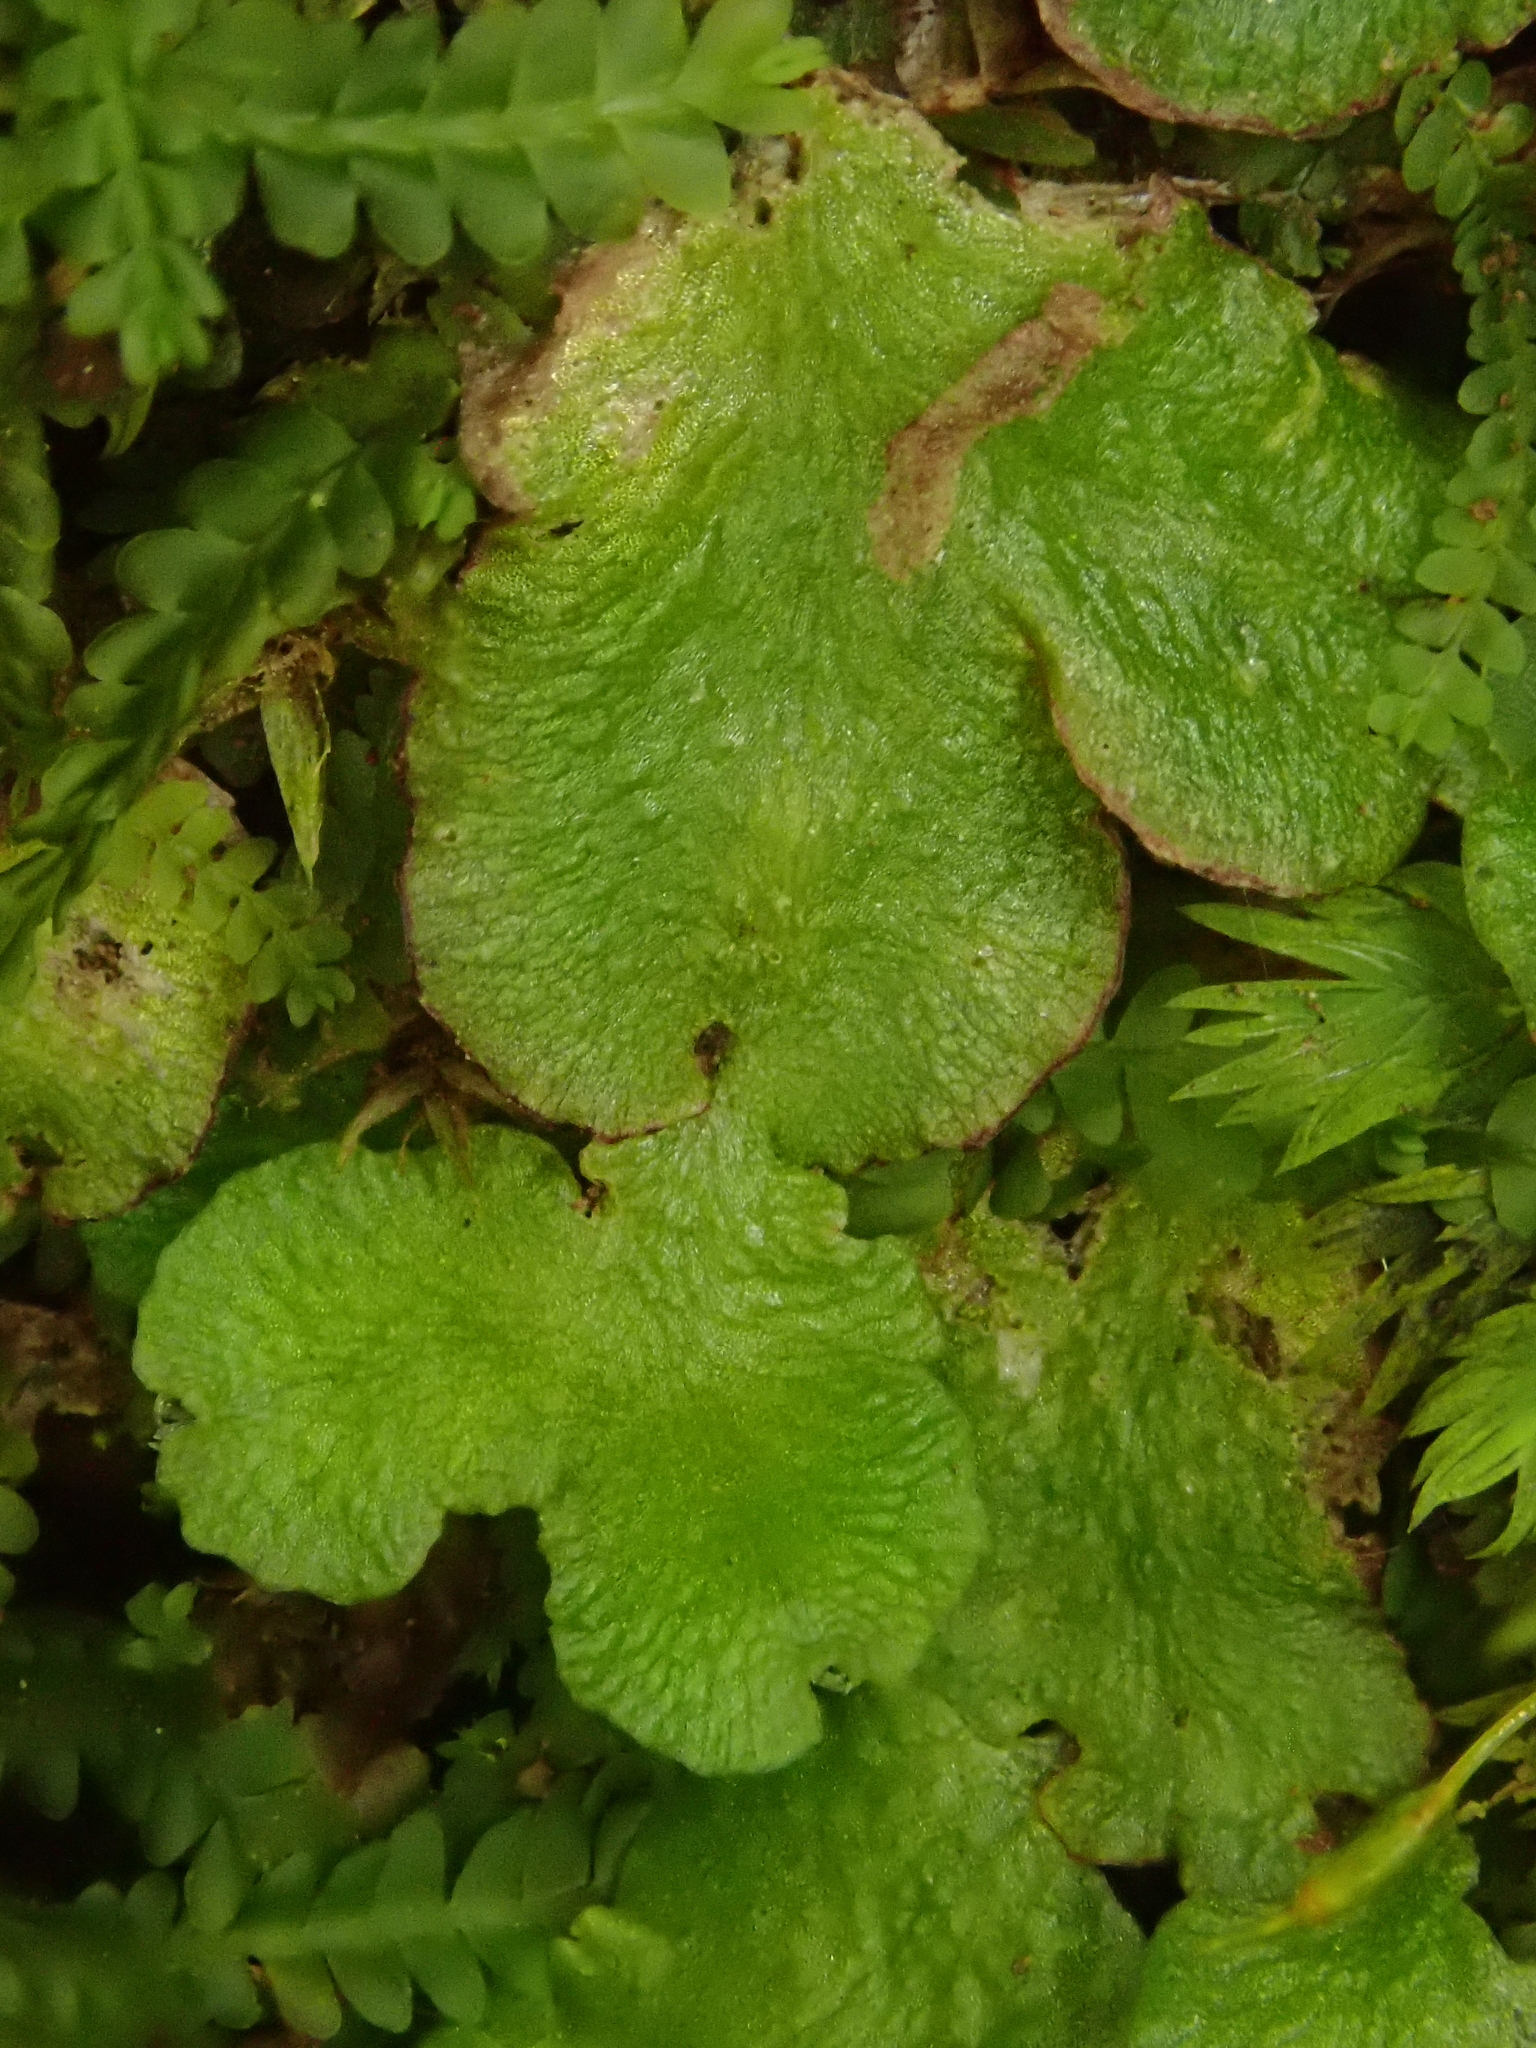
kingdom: Plantae
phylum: Marchantiophyta
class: Marchantiopsida
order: Marchantiales
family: Aytoniaceae
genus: Asterella
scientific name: Asterella africana
